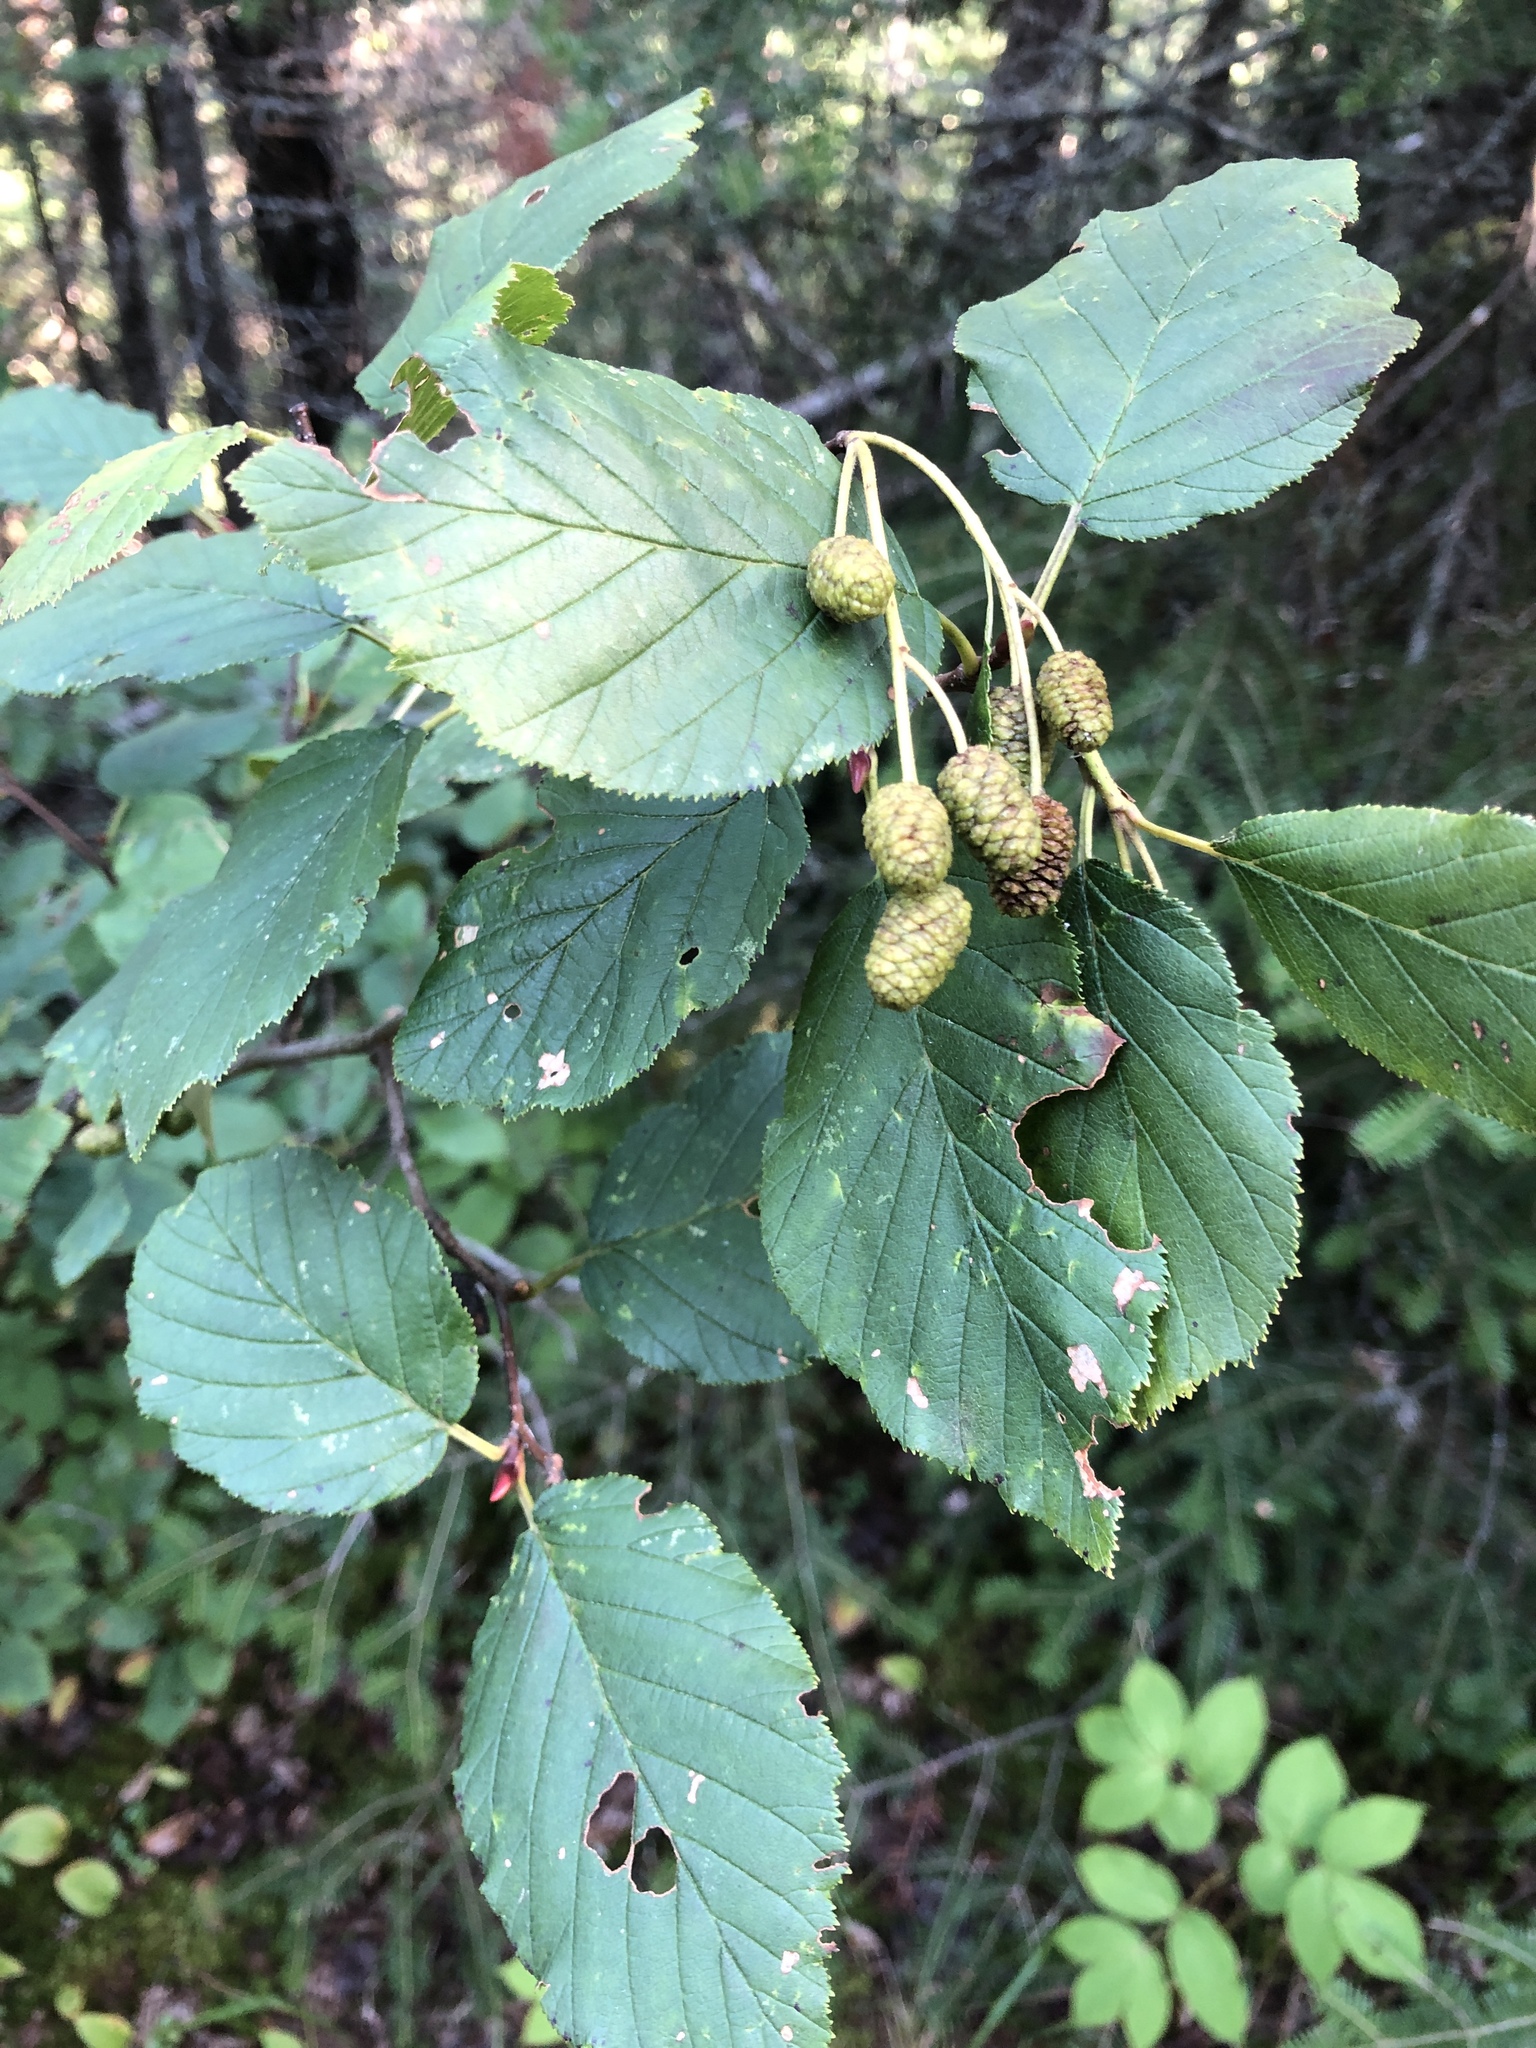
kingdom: Plantae
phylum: Tracheophyta
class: Magnoliopsida
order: Fagales
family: Betulaceae
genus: Alnus
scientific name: Alnus alnobetula
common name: Green alder
